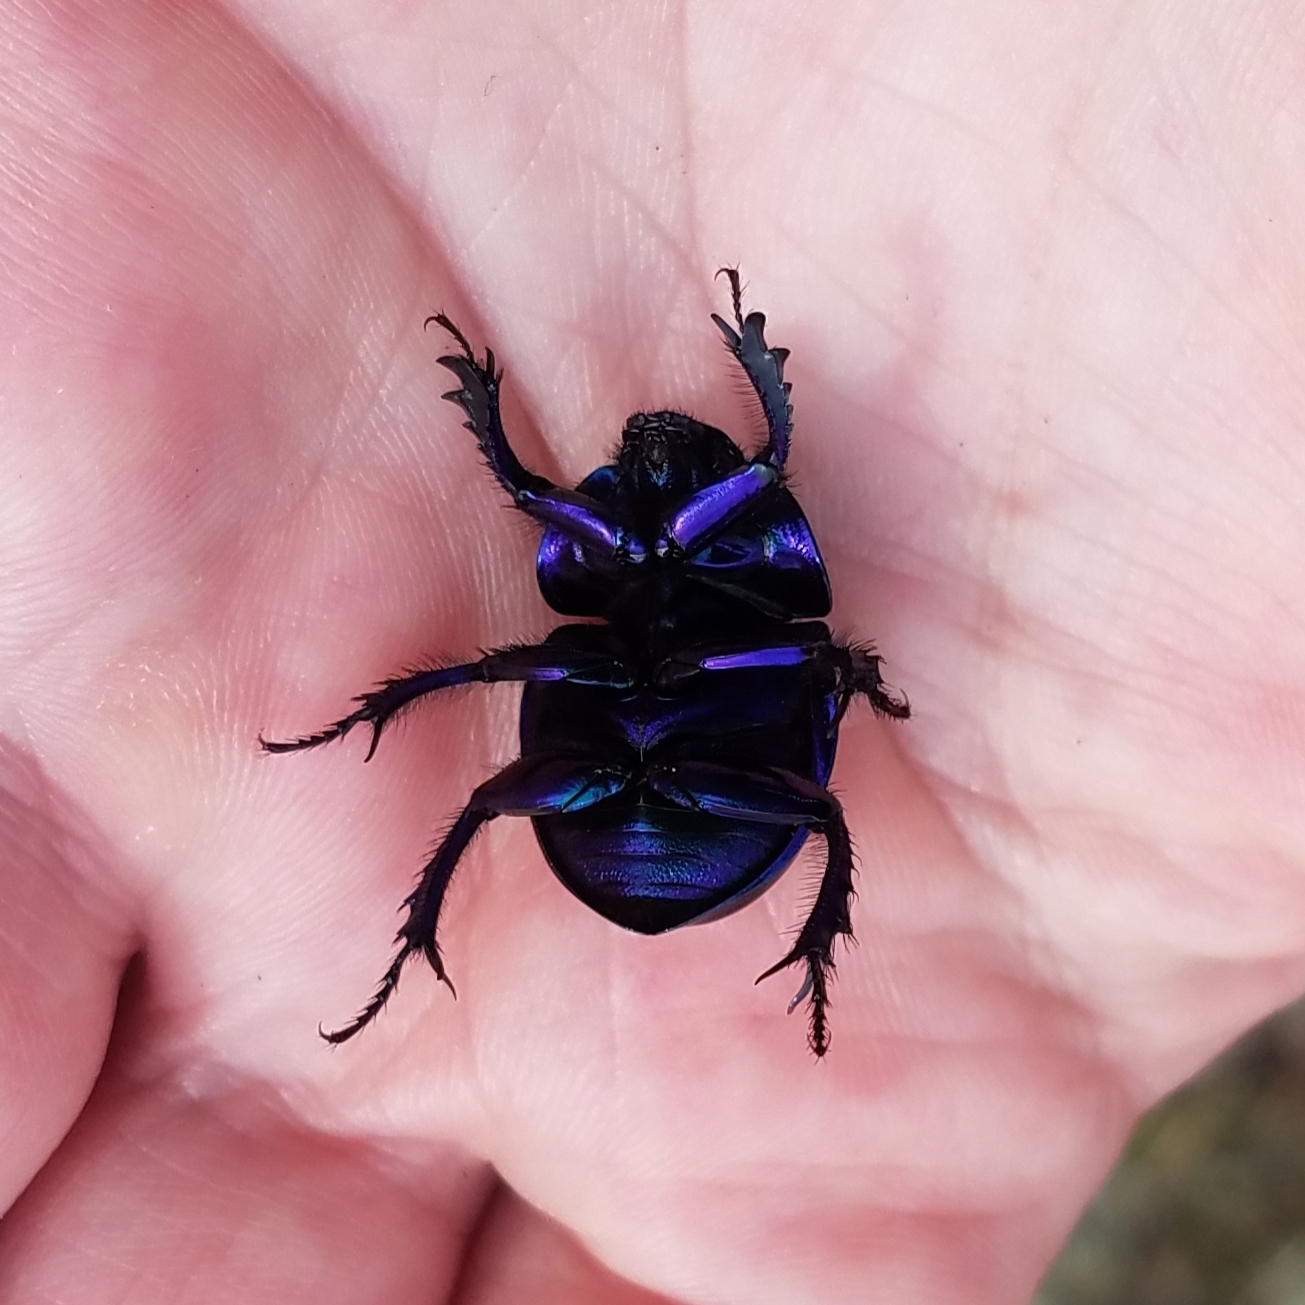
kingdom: Animalia
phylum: Arthropoda
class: Insecta
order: Coleoptera
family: Geotrupidae
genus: Trypocopris
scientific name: Trypocopris vernalis
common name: Spring dumbledor
